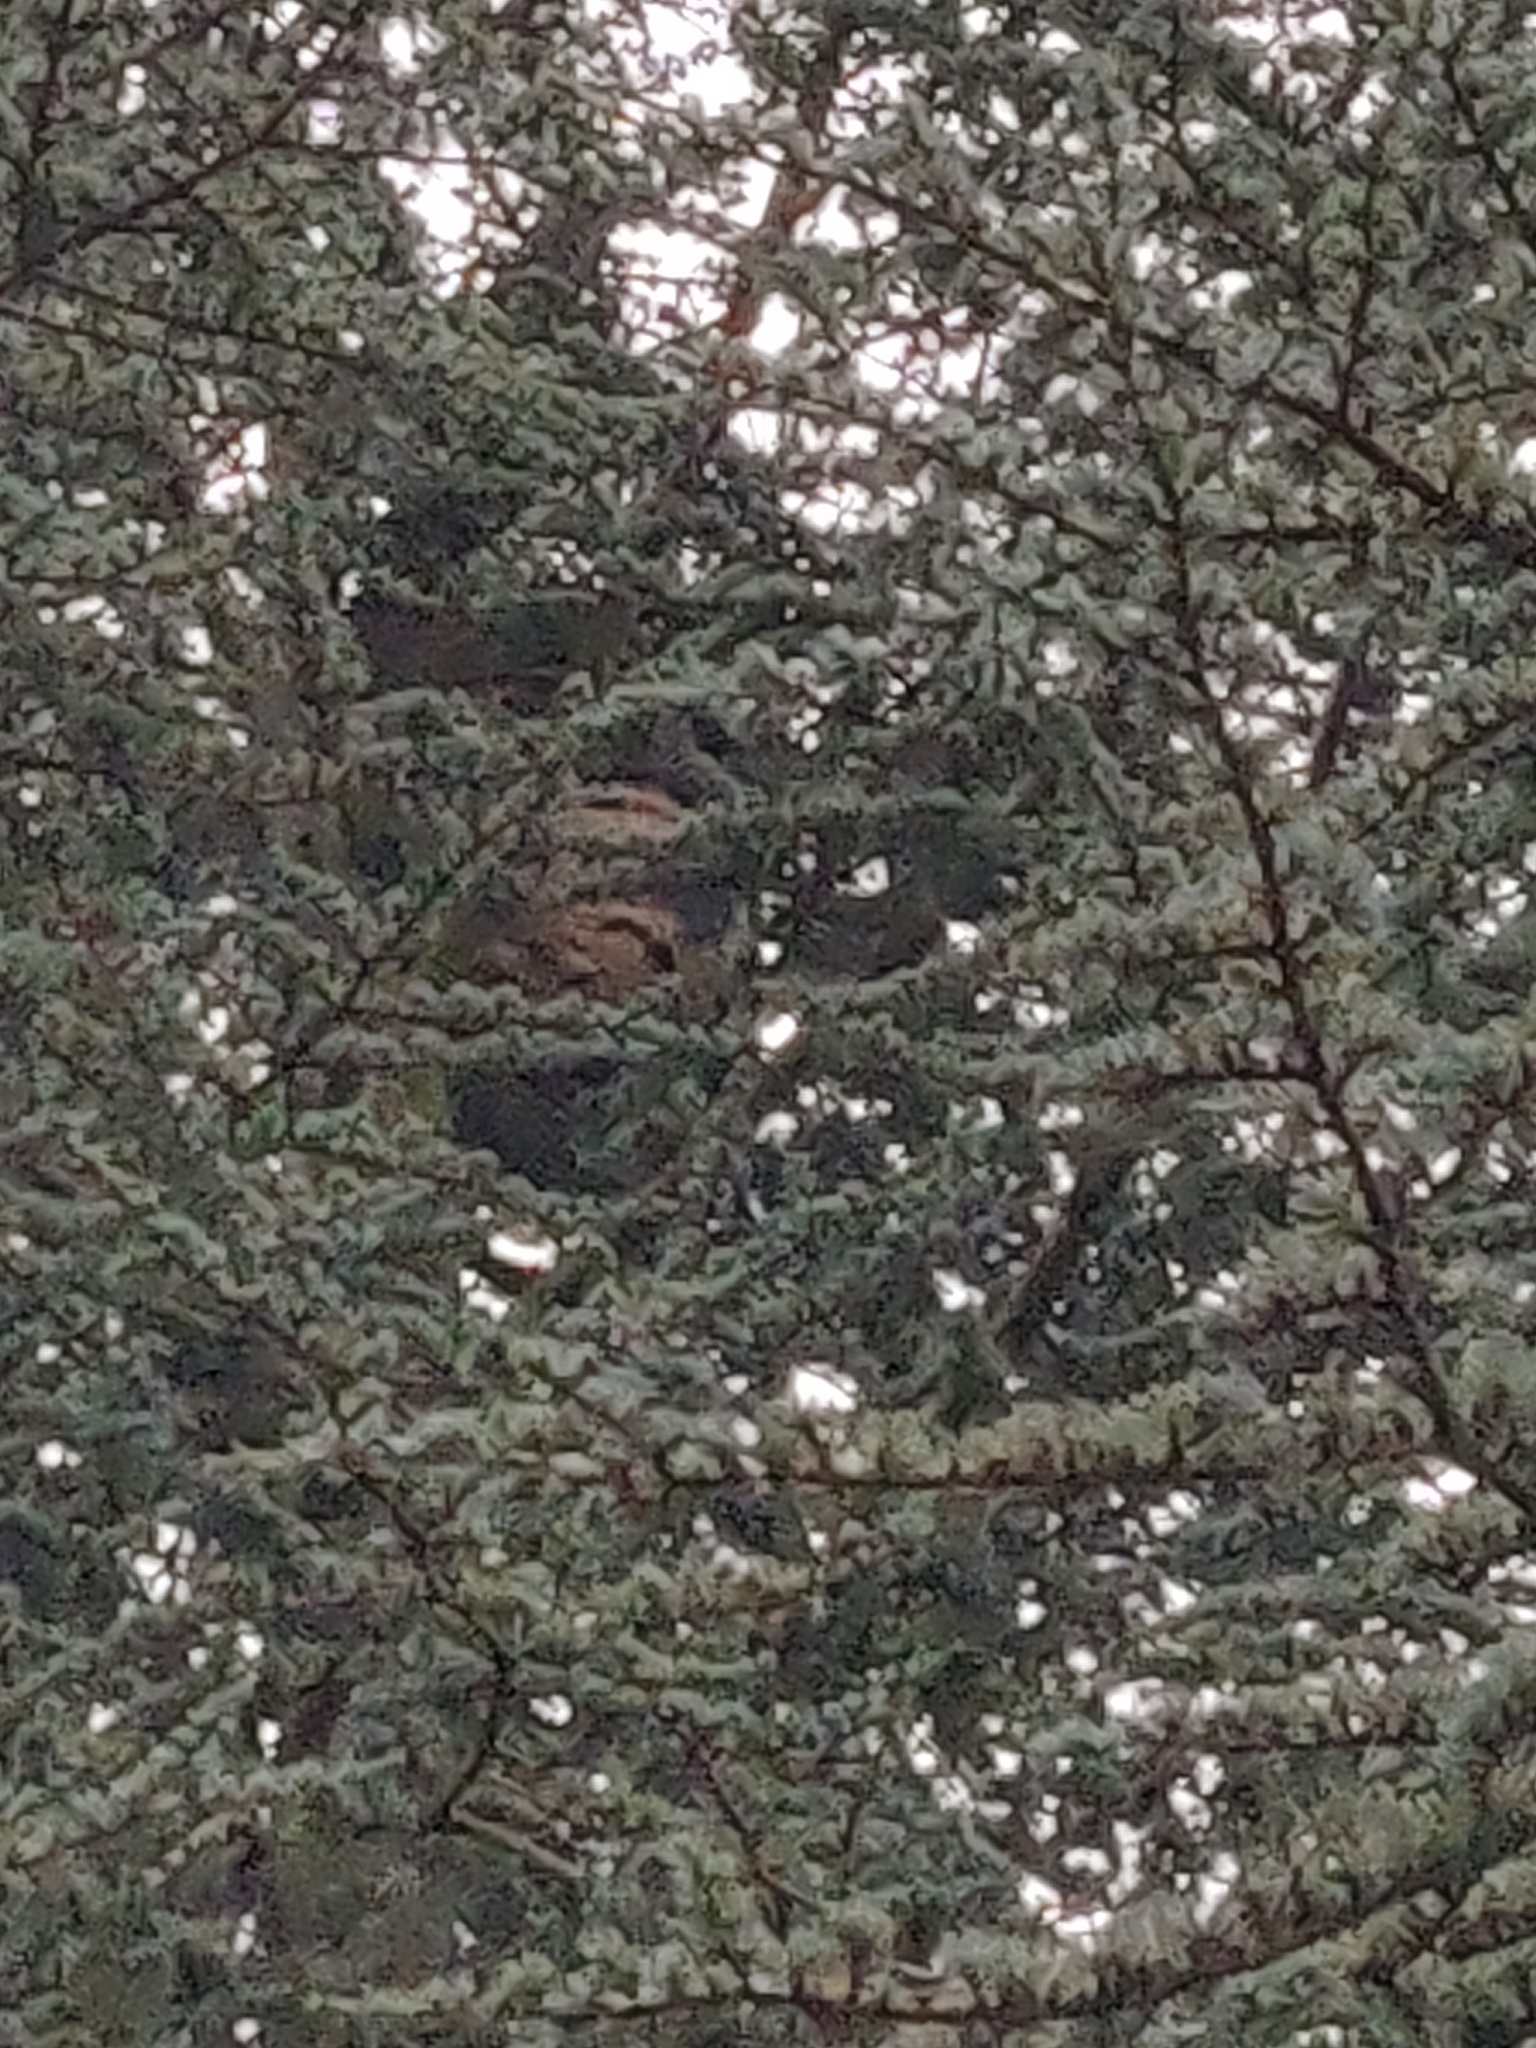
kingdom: Animalia
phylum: Arthropoda
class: Insecta
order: Hymenoptera
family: Vespidae
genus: Vespa
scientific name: Vespa velutina
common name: Asian hornet
